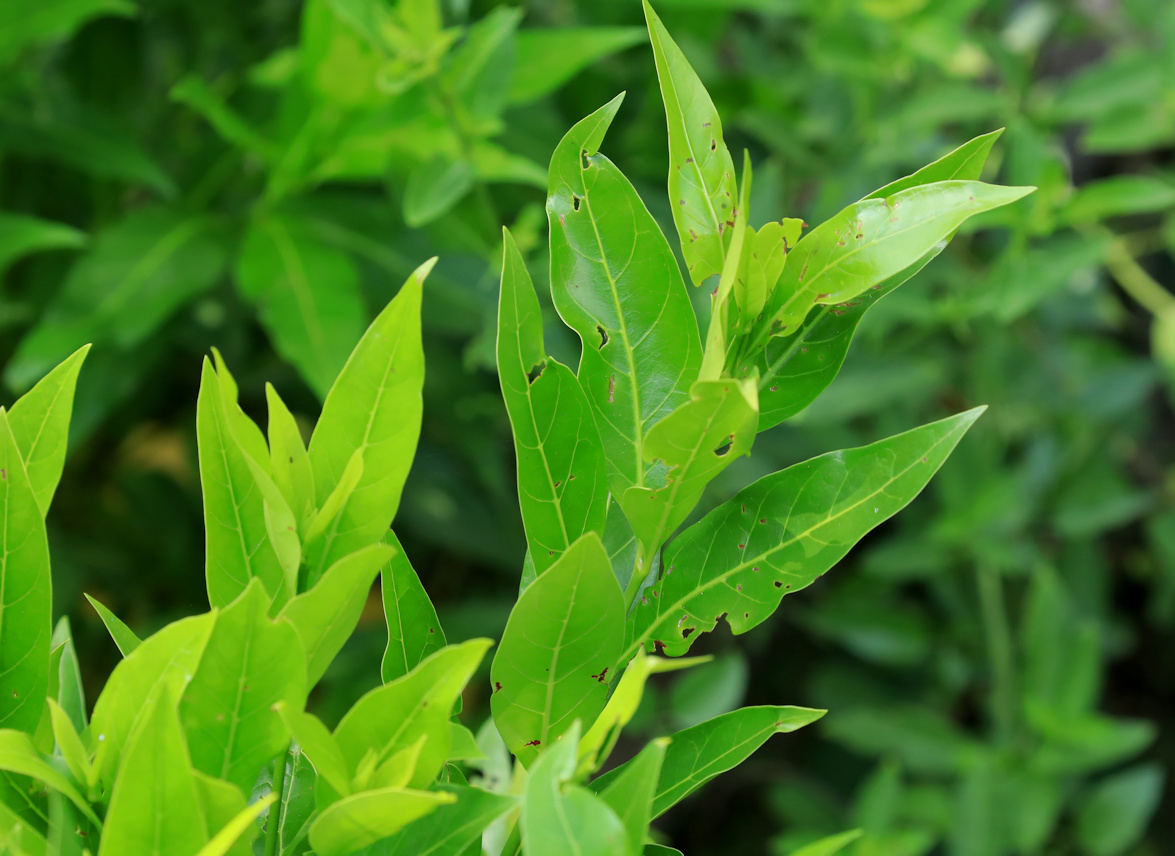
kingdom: Plantae
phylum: Tracheophyta
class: Magnoliopsida
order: Gentianales
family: Rubiaceae
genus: Kraussia
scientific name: Kraussia floribunda
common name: Rhino-coffee
